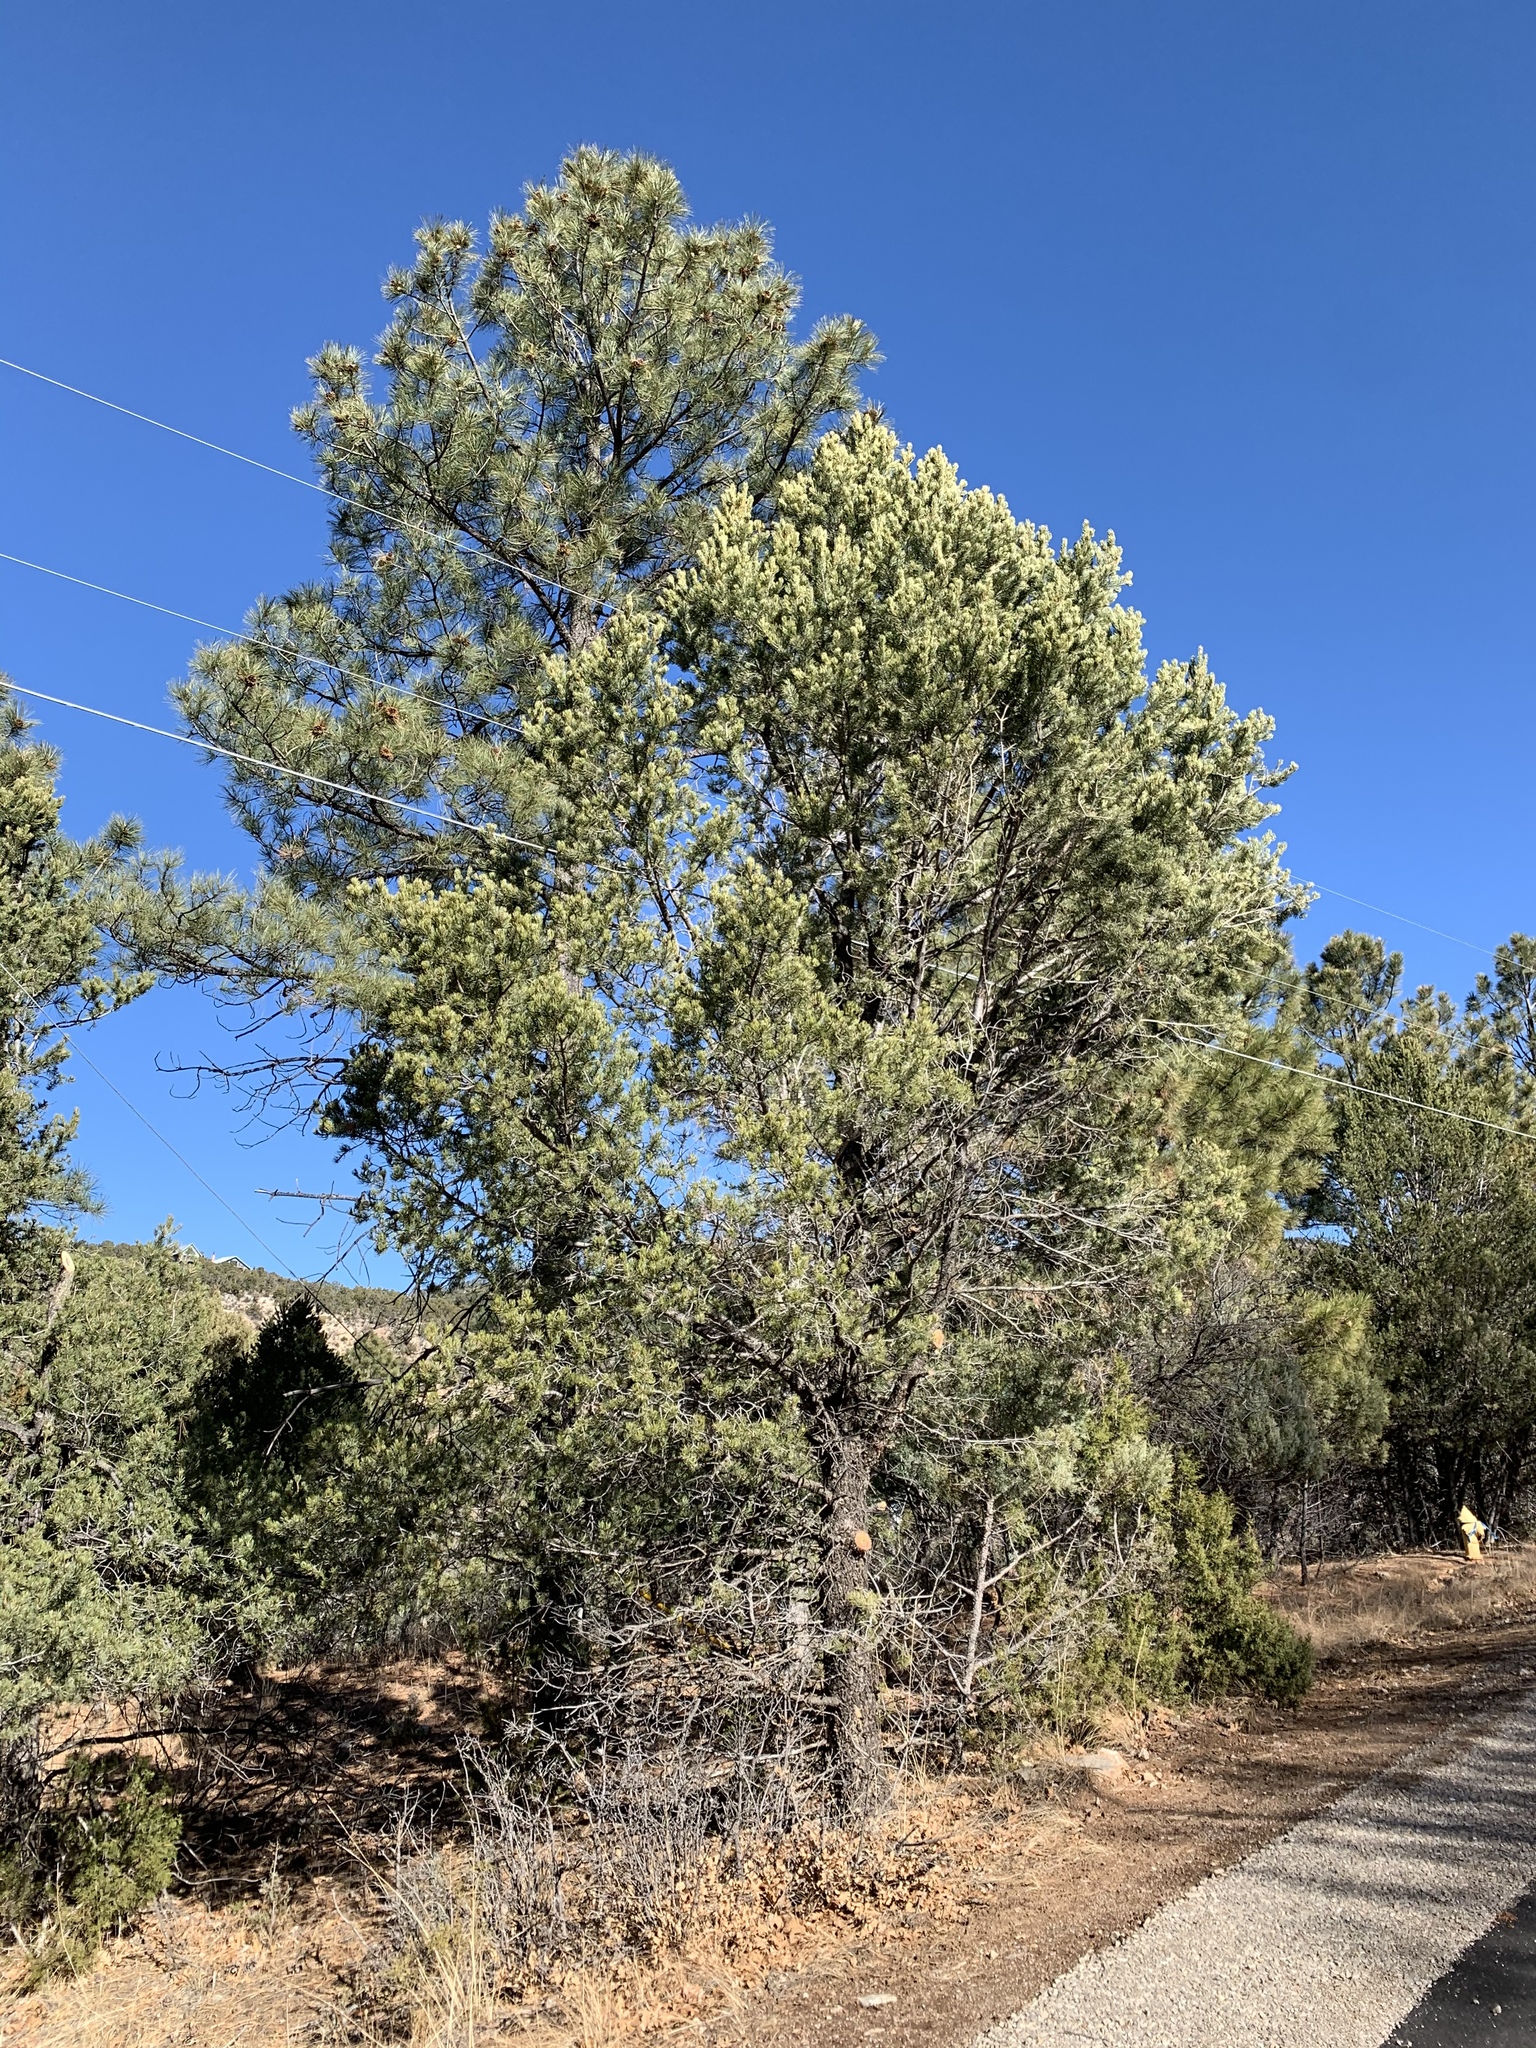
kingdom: Plantae
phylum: Tracheophyta
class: Pinopsida
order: Pinales
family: Pinaceae
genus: Pinus
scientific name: Pinus edulis
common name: Colorado pinyon
